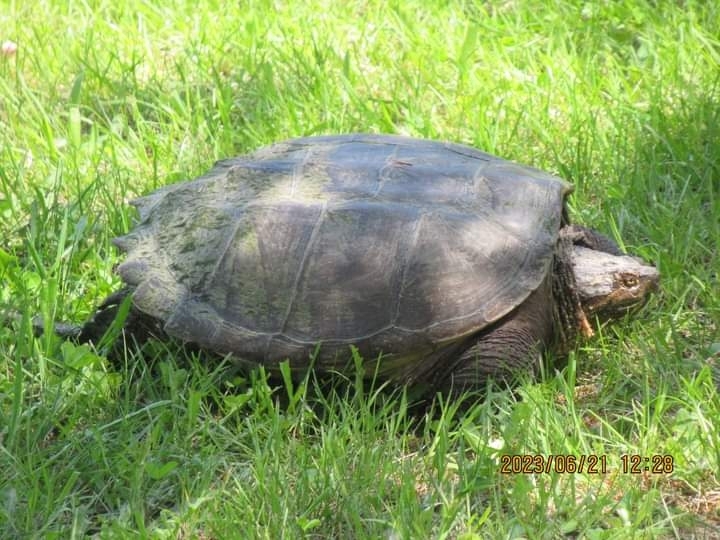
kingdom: Animalia
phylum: Chordata
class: Testudines
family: Chelydridae
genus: Chelydra
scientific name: Chelydra serpentina
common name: Common snapping turtle
